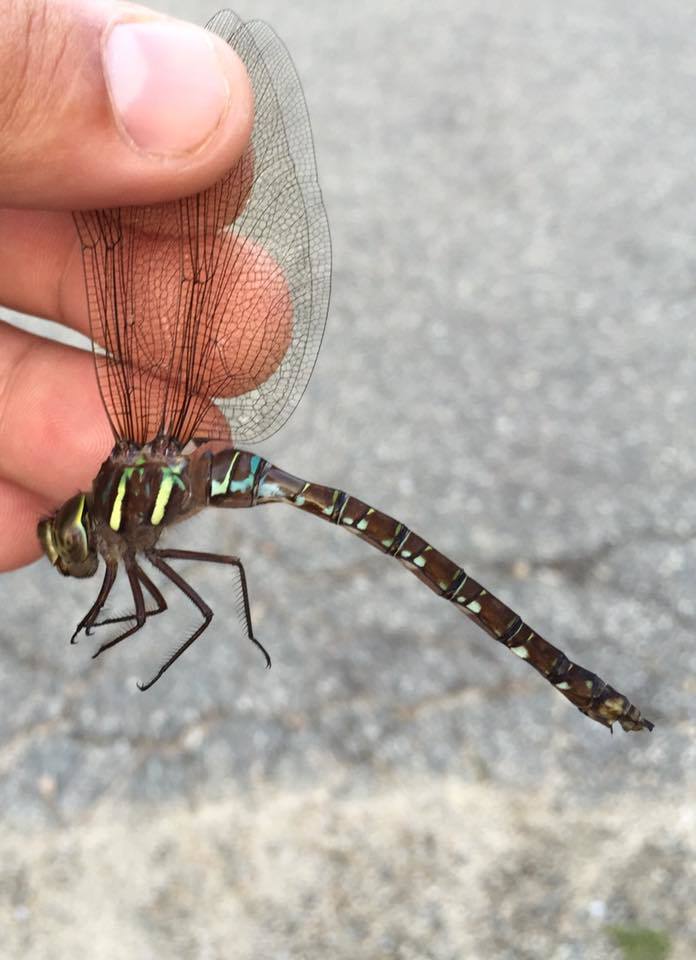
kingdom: Animalia
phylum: Arthropoda
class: Insecta
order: Odonata
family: Aeshnidae
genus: Aeshna
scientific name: Aeshna umbrosa
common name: Shadow darner
